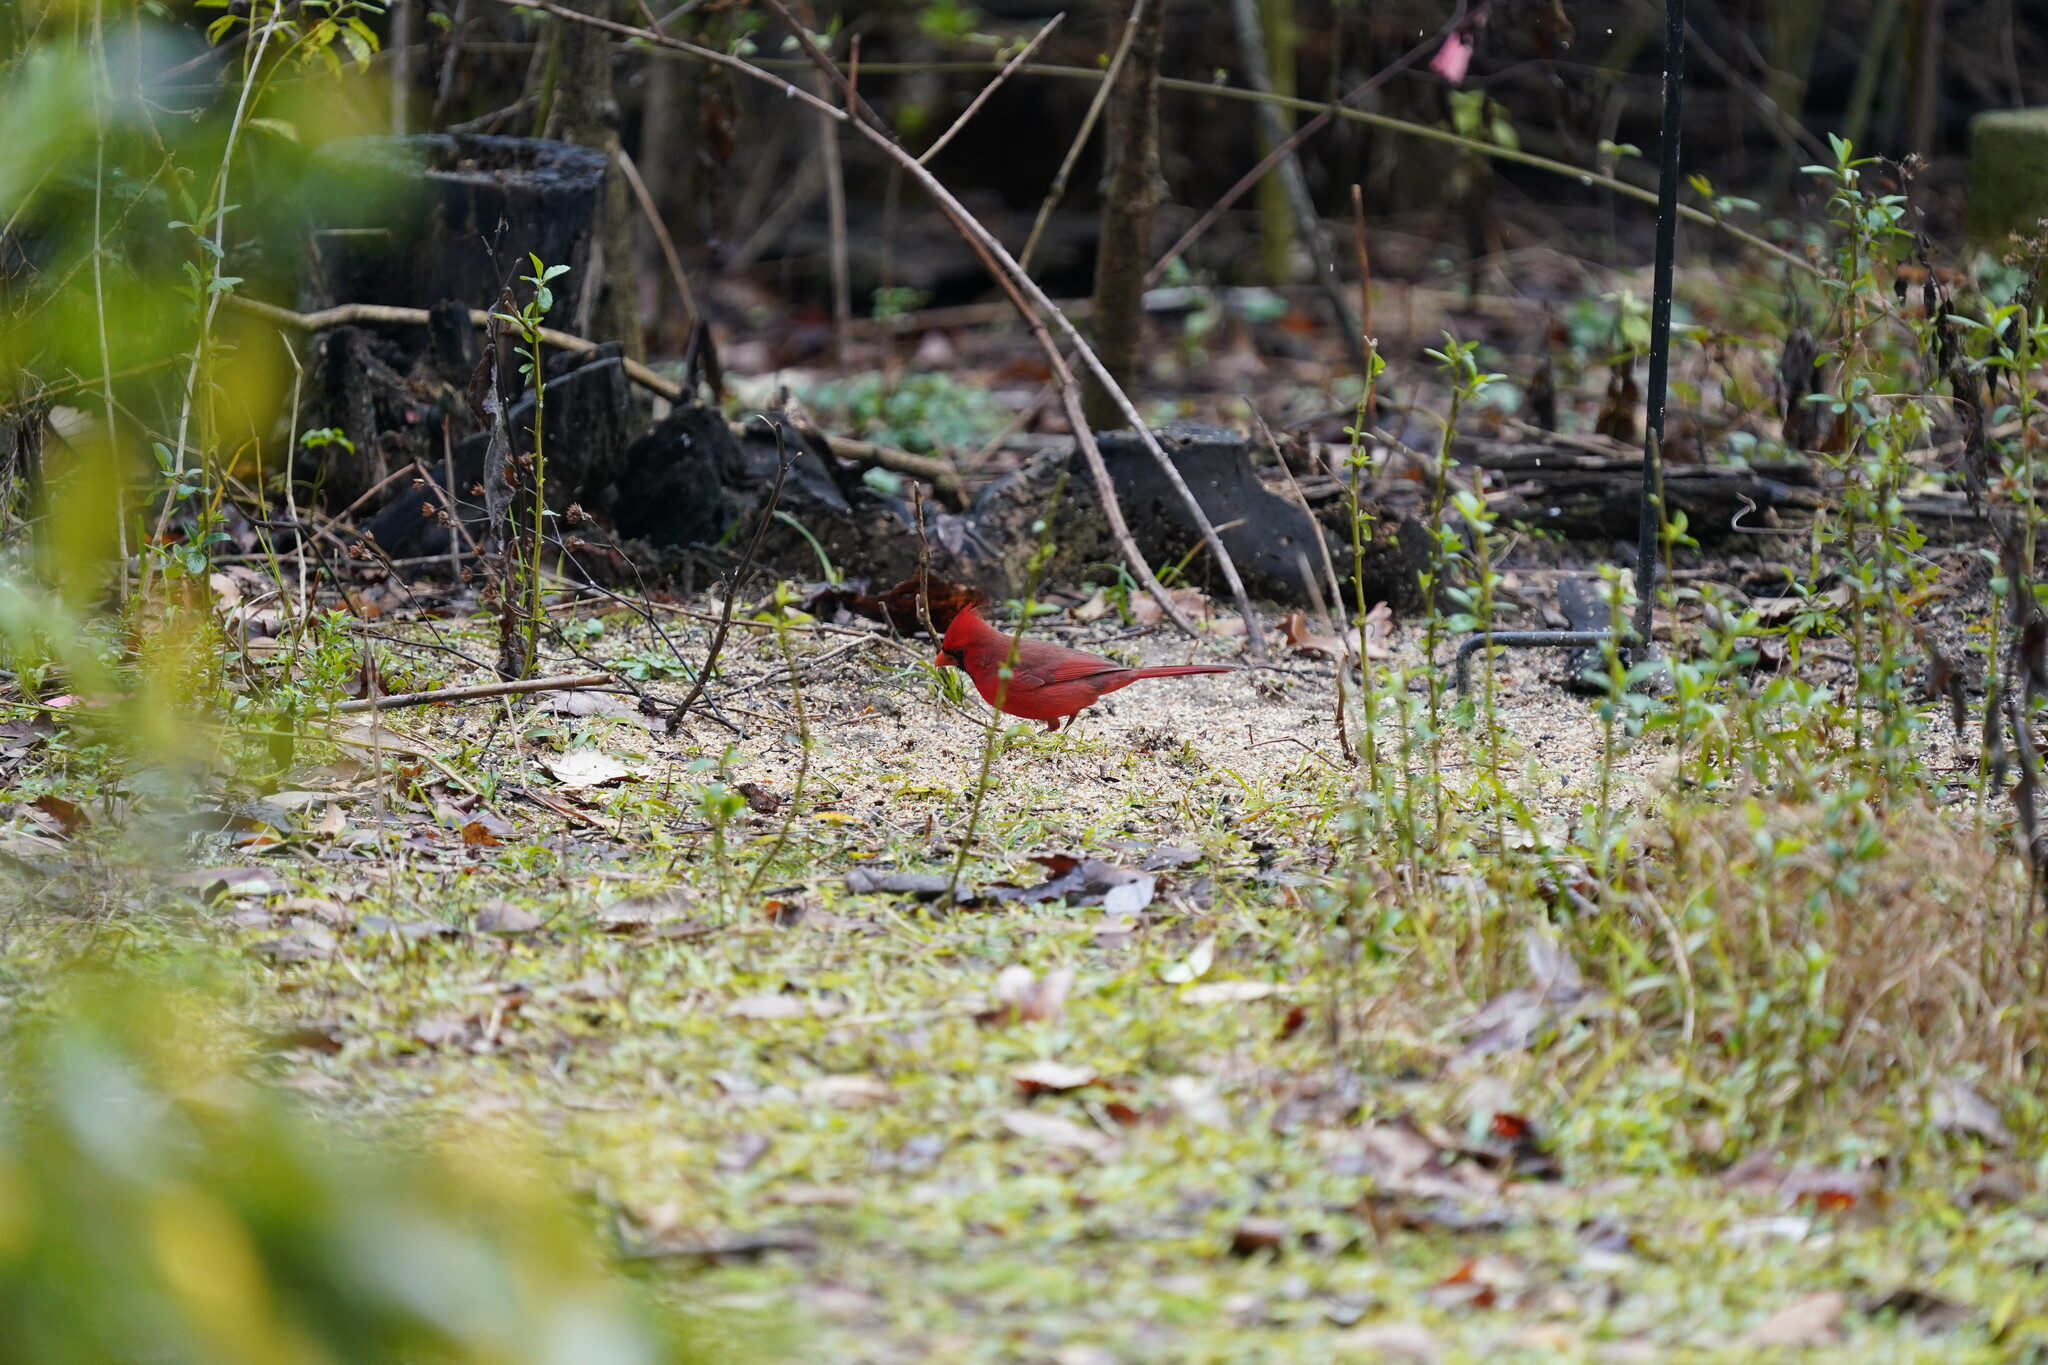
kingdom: Animalia
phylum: Chordata
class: Aves
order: Passeriformes
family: Cardinalidae
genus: Cardinalis
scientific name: Cardinalis cardinalis
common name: Northern cardinal
